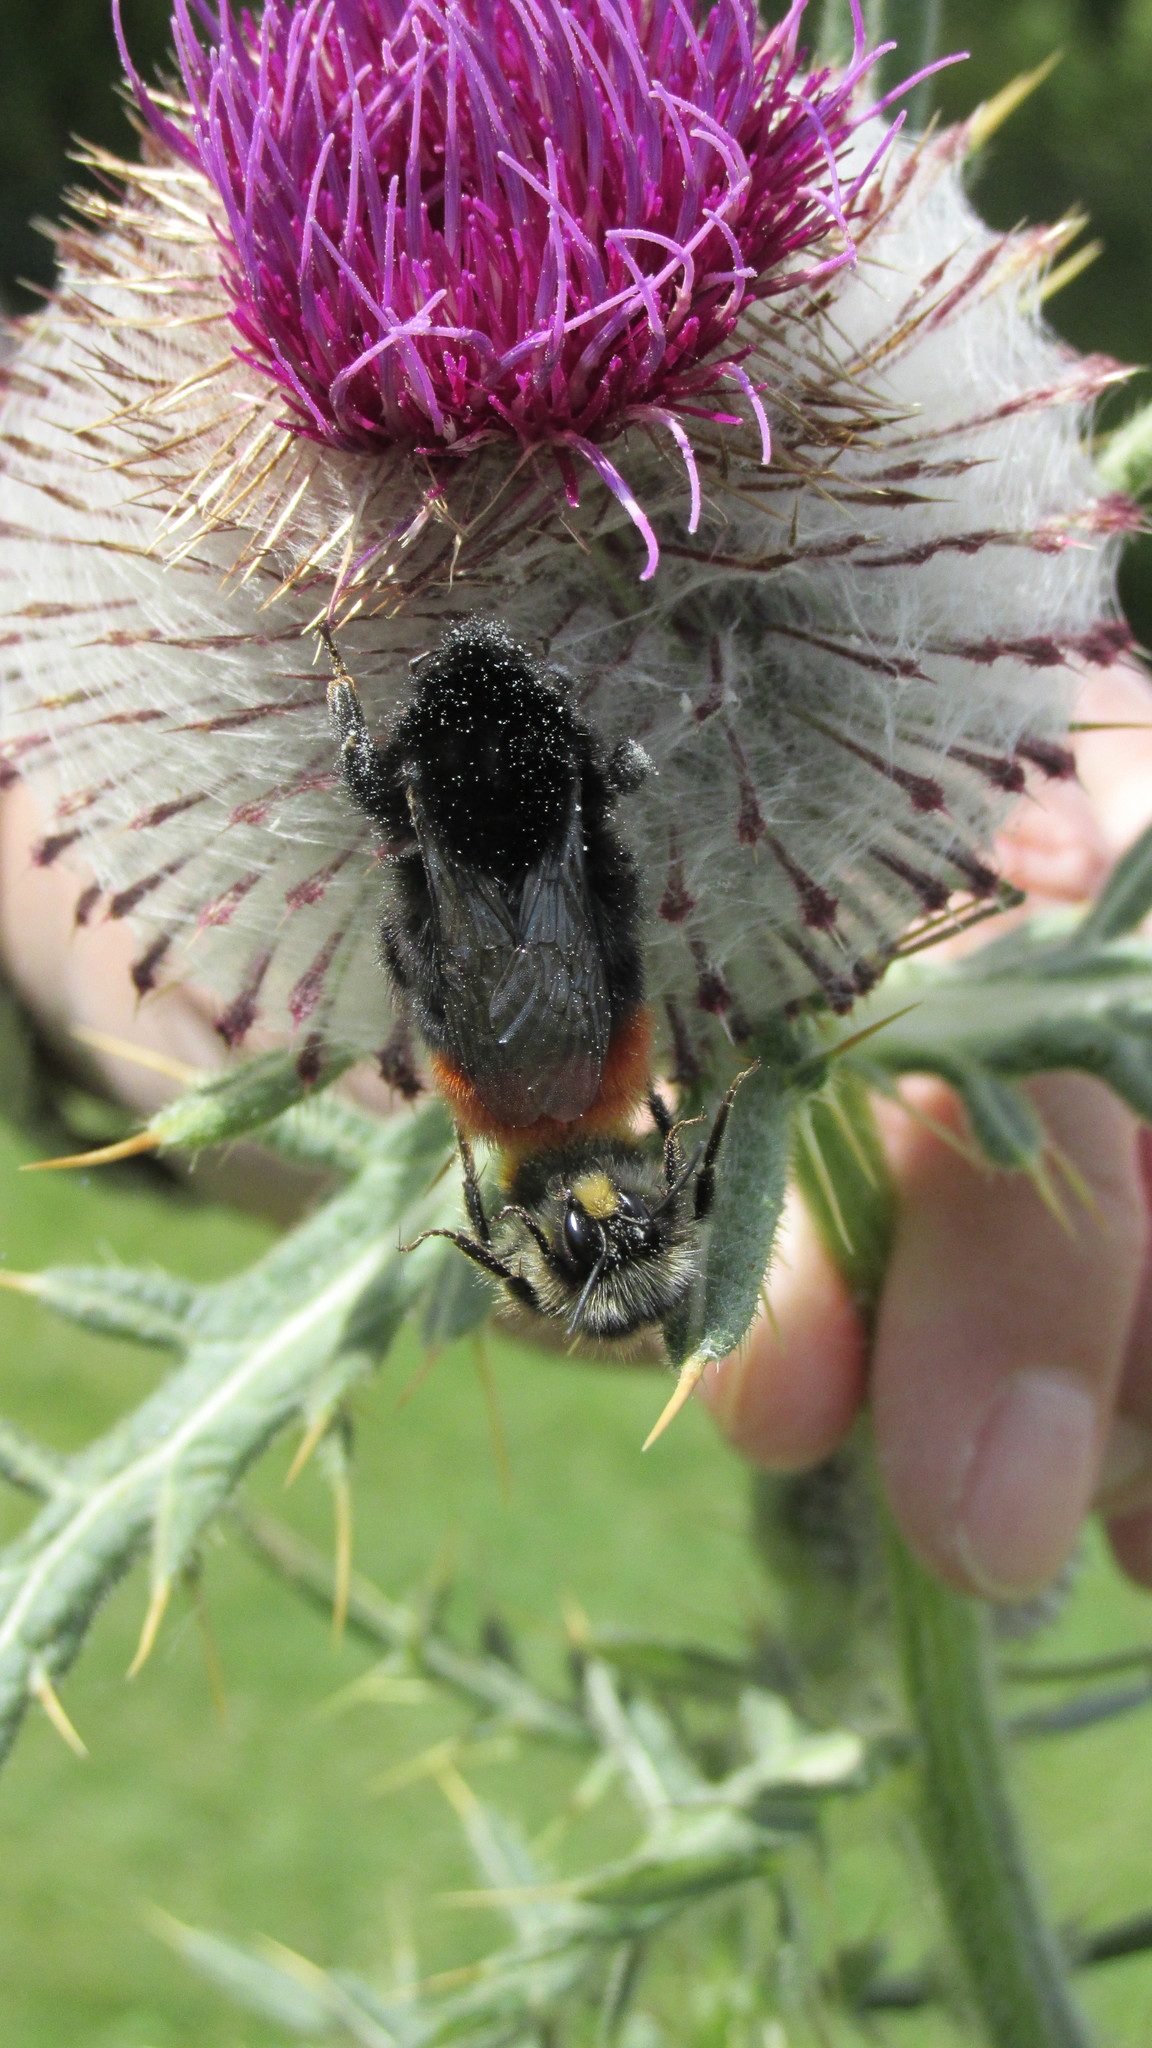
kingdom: Animalia
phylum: Arthropoda
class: Insecta
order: Hymenoptera
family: Apidae
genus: Bombus
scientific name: Bombus lapidarius
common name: Large red-tailed humble-bee
